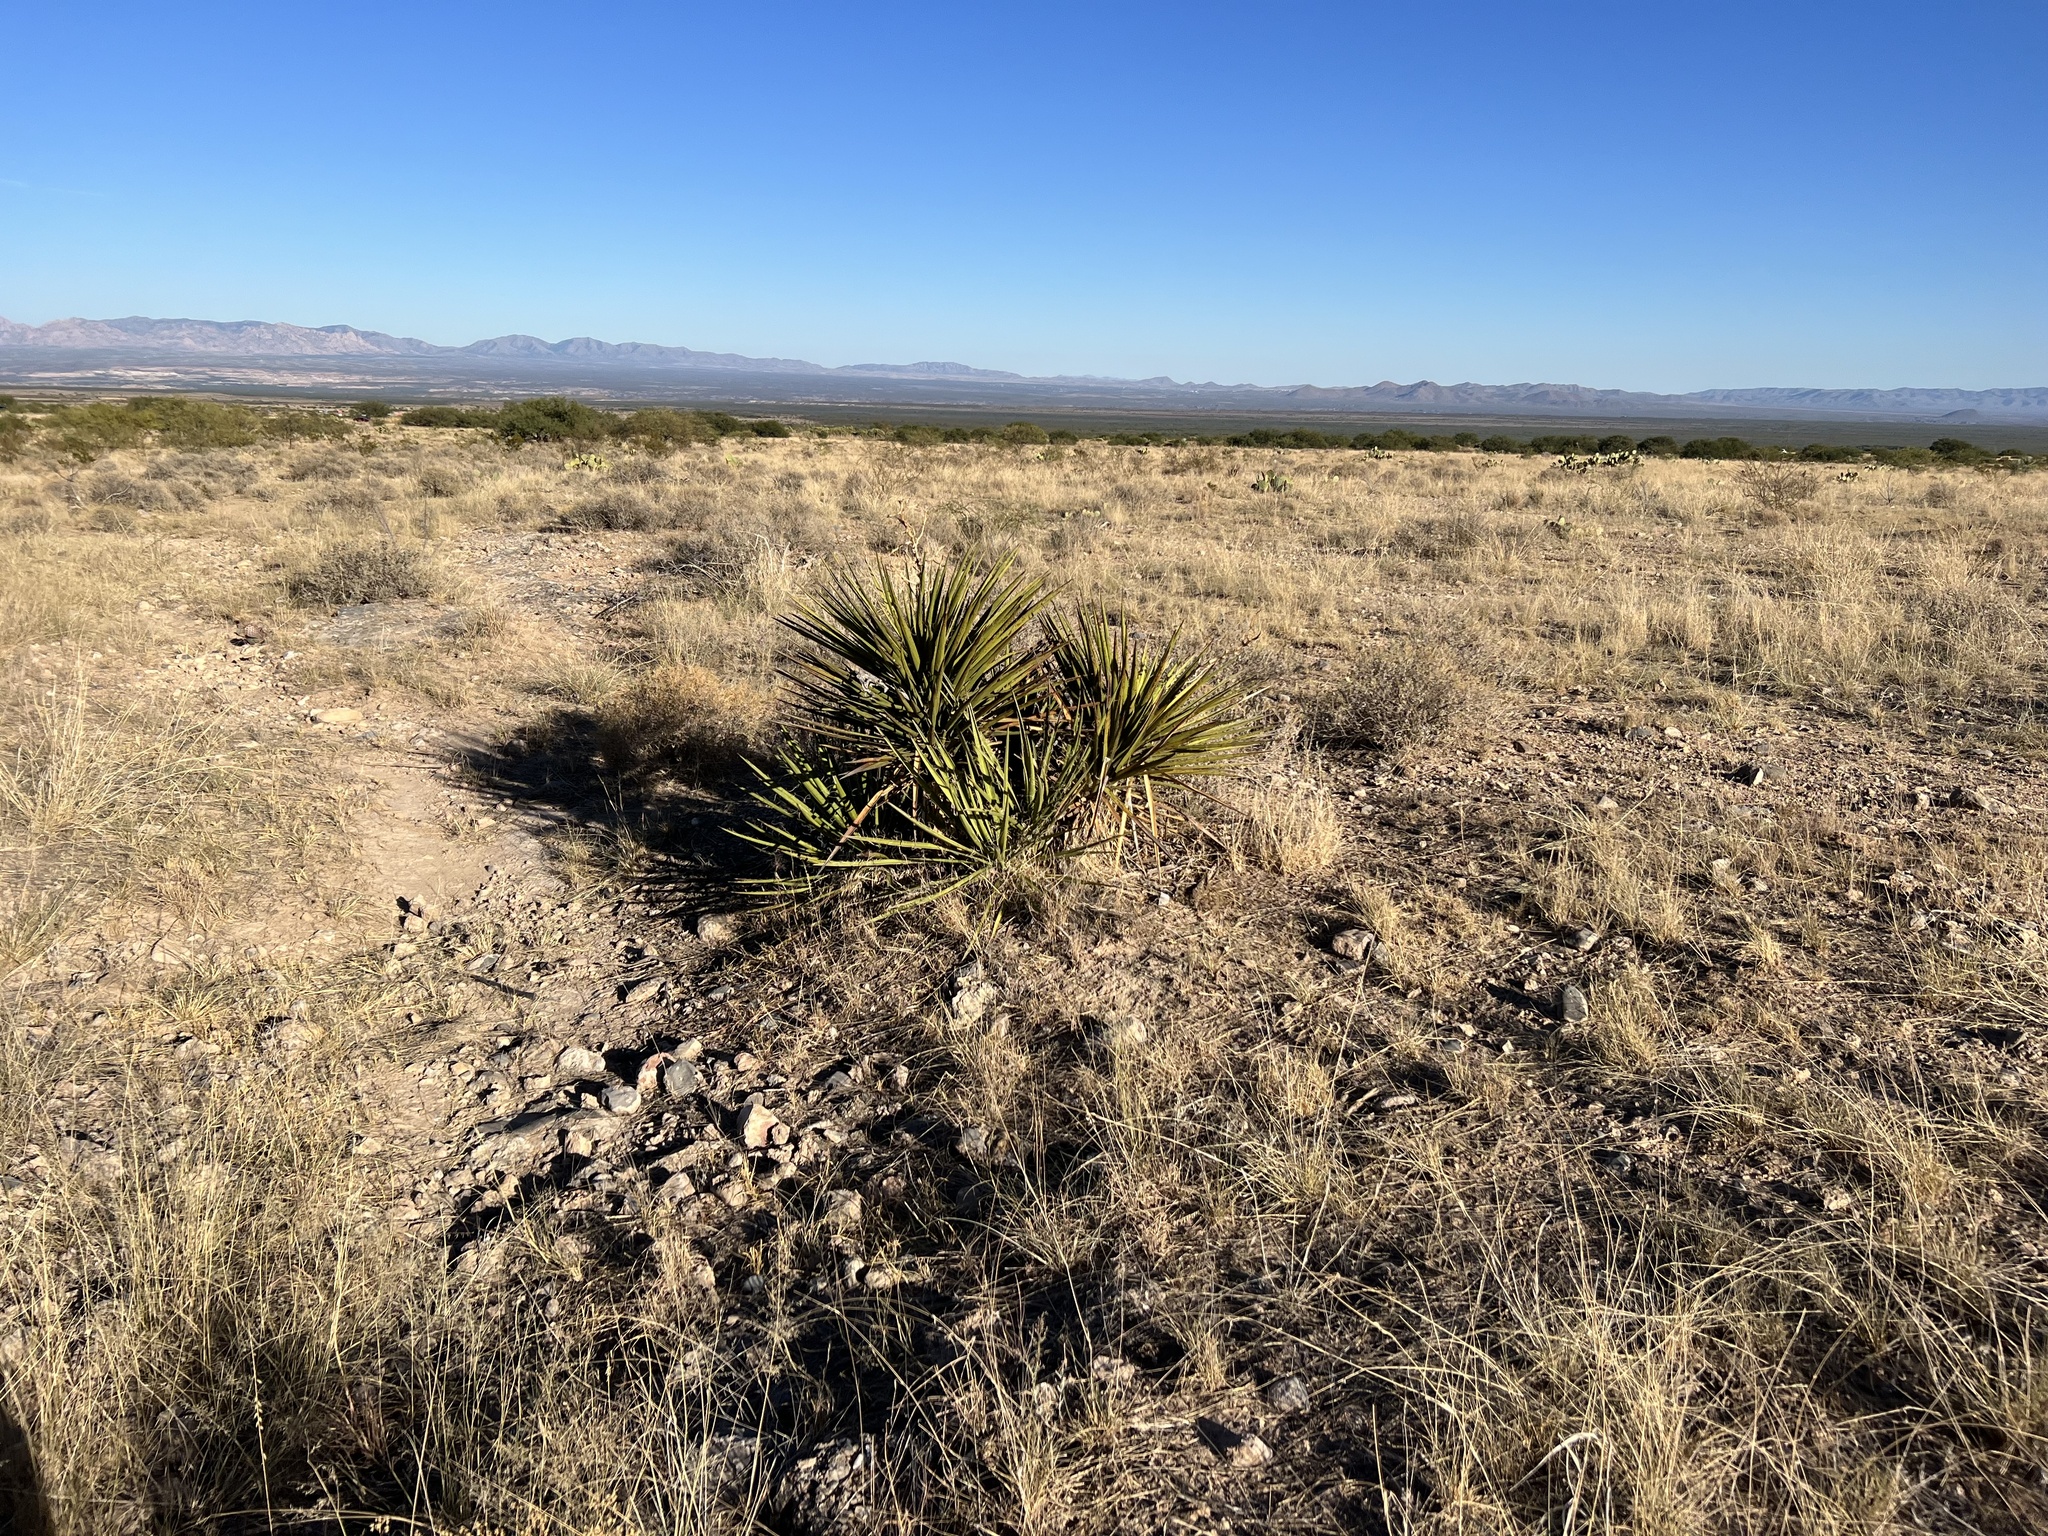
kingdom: Plantae
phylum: Tracheophyta
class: Liliopsida
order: Asparagales
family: Asparagaceae
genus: Yucca
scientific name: Yucca schottii
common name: Hoary yucca
